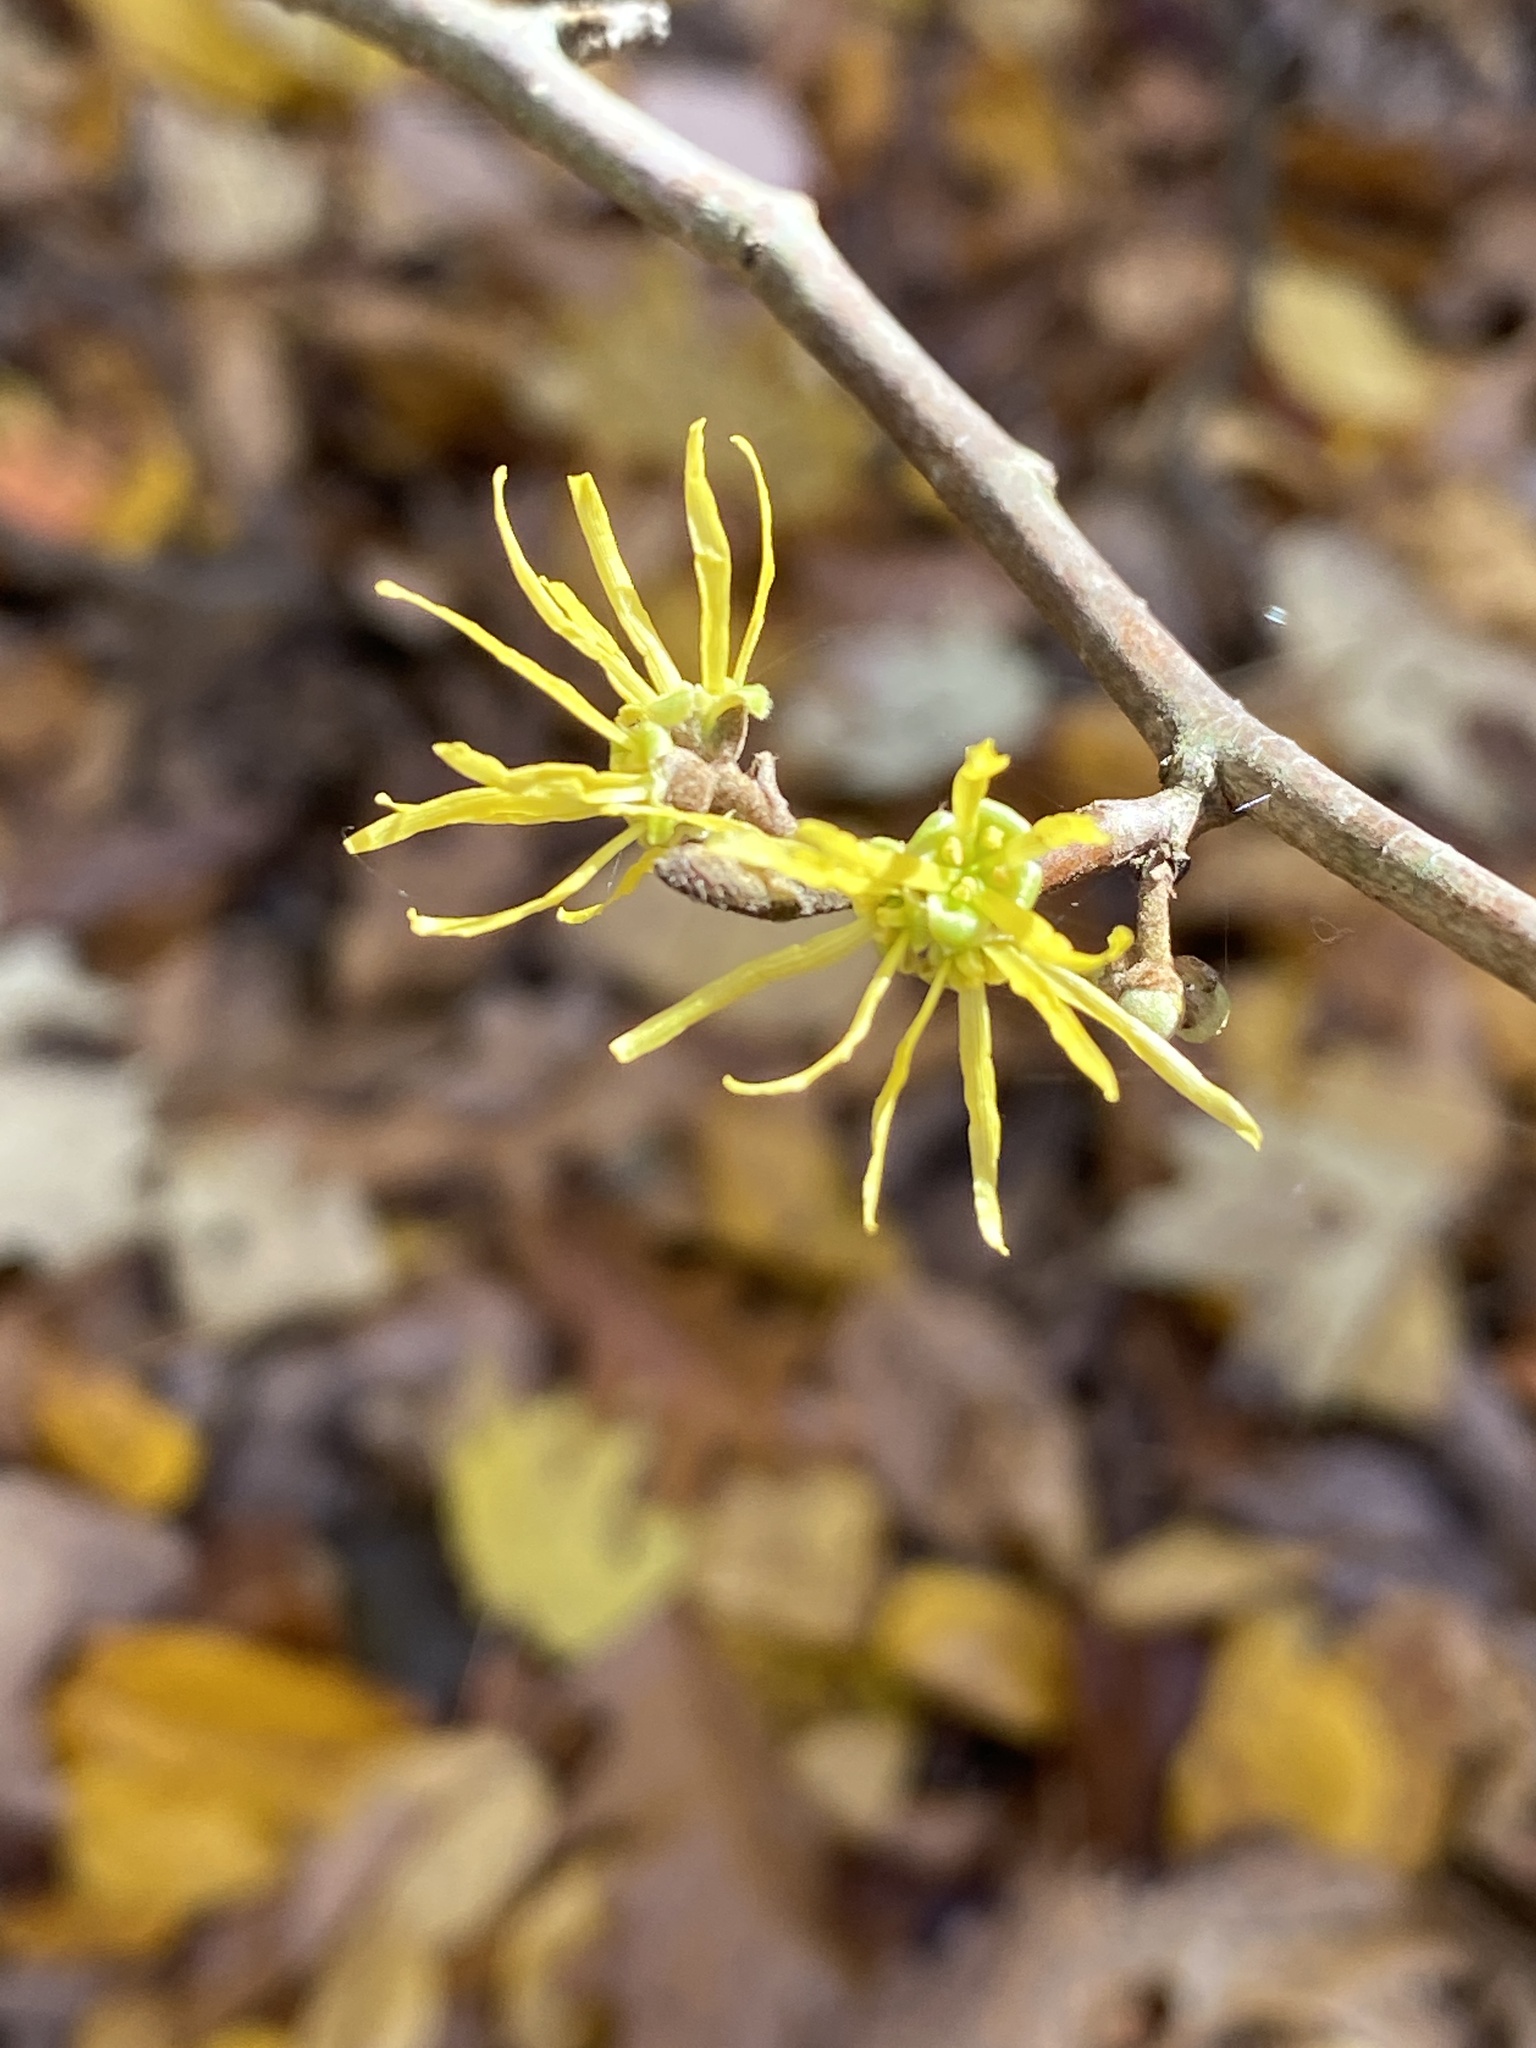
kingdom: Plantae
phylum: Tracheophyta
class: Magnoliopsida
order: Saxifragales
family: Hamamelidaceae
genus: Hamamelis
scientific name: Hamamelis virginiana
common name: Witch-hazel
